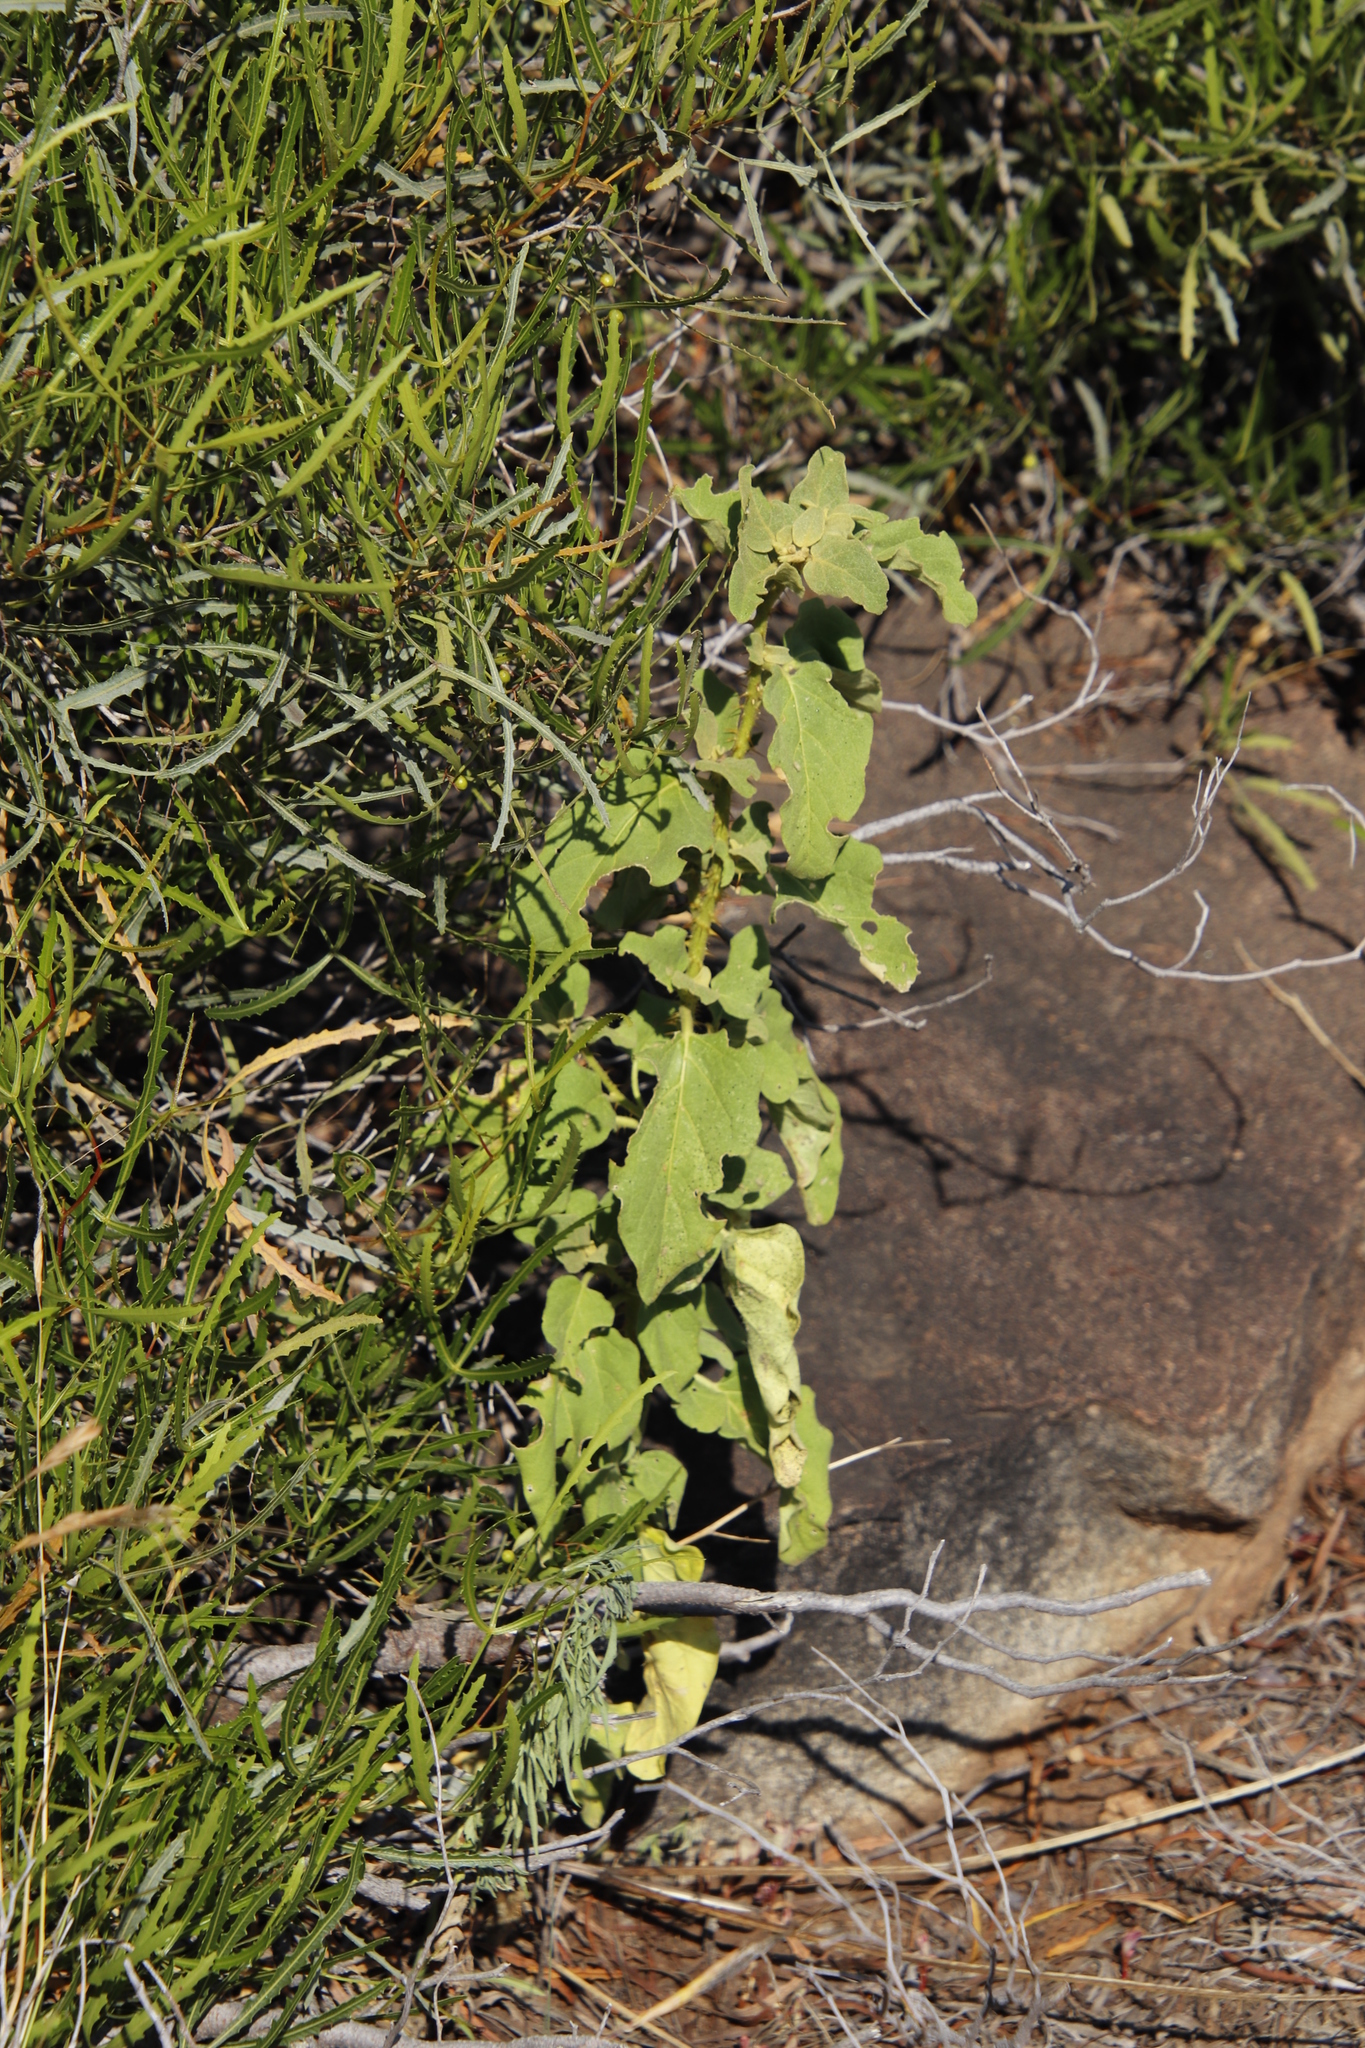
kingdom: Plantae
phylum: Tracheophyta
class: Magnoliopsida
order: Solanales
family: Solanaceae
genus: Solanum
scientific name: Solanum tomentosum
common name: Wild aubergine
